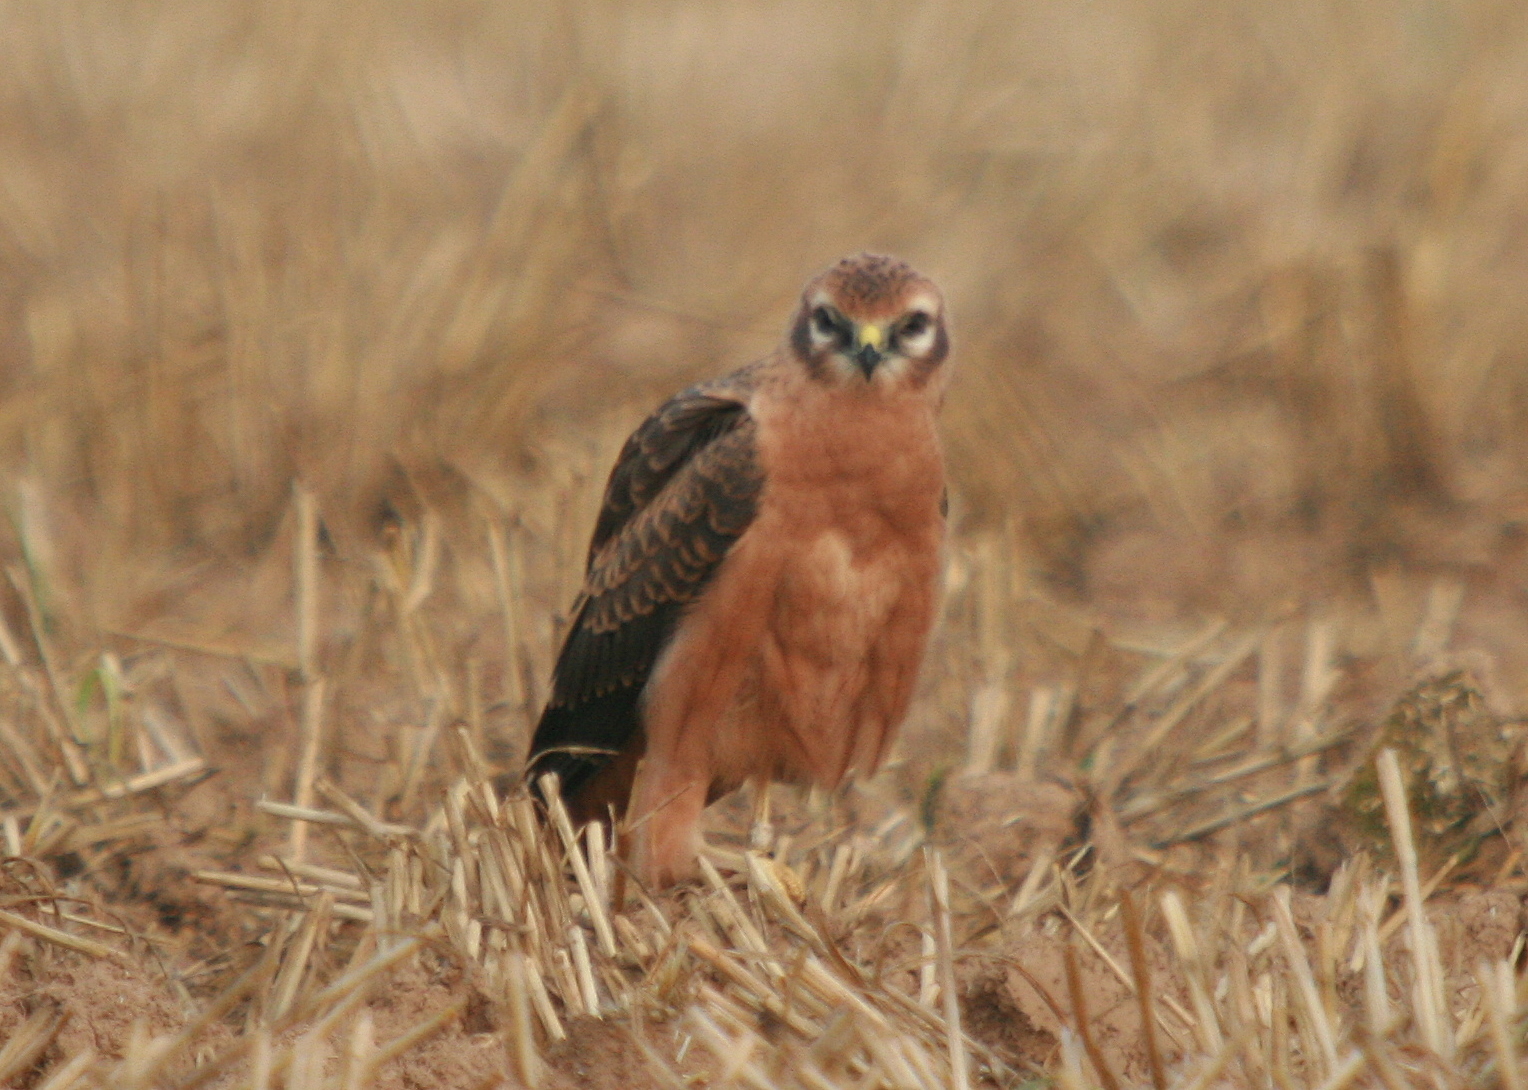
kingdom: Animalia
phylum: Chordata
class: Aves
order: Accipitriformes
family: Accipitridae
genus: Circus
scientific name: Circus pygargus
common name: Montagu's harrier
